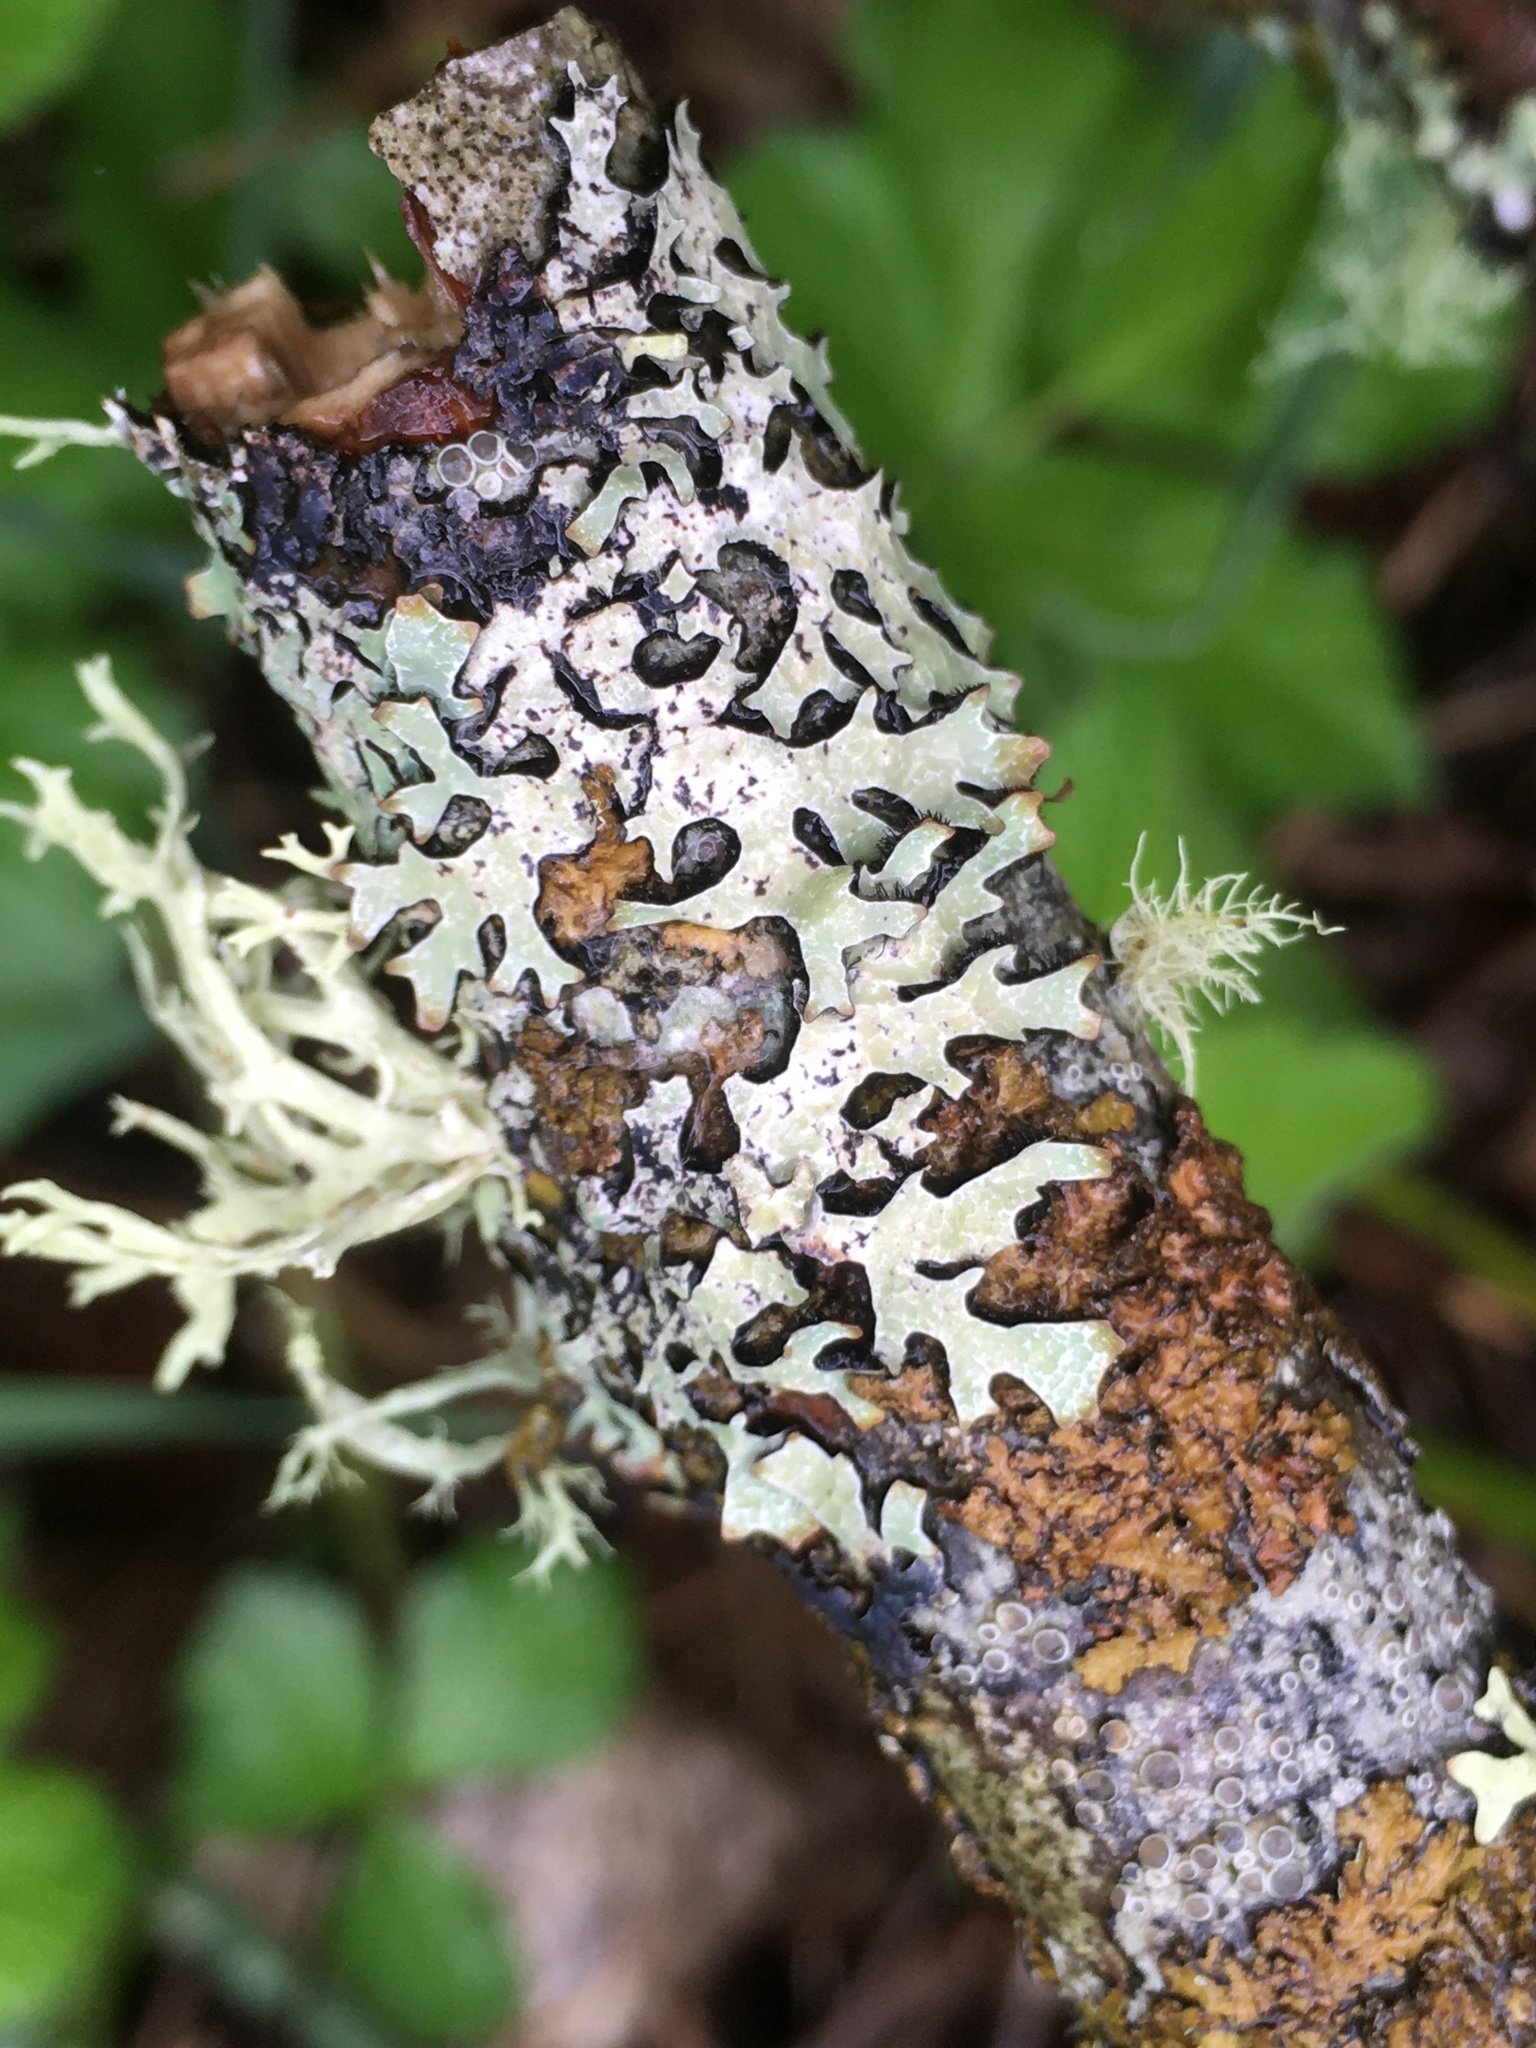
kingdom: Fungi
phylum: Ascomycota
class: Lecanoromycetes
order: Lecanorales
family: Parmeliaceae
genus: Parmelia
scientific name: Parmelia sulcata
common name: Netted shield lichen
